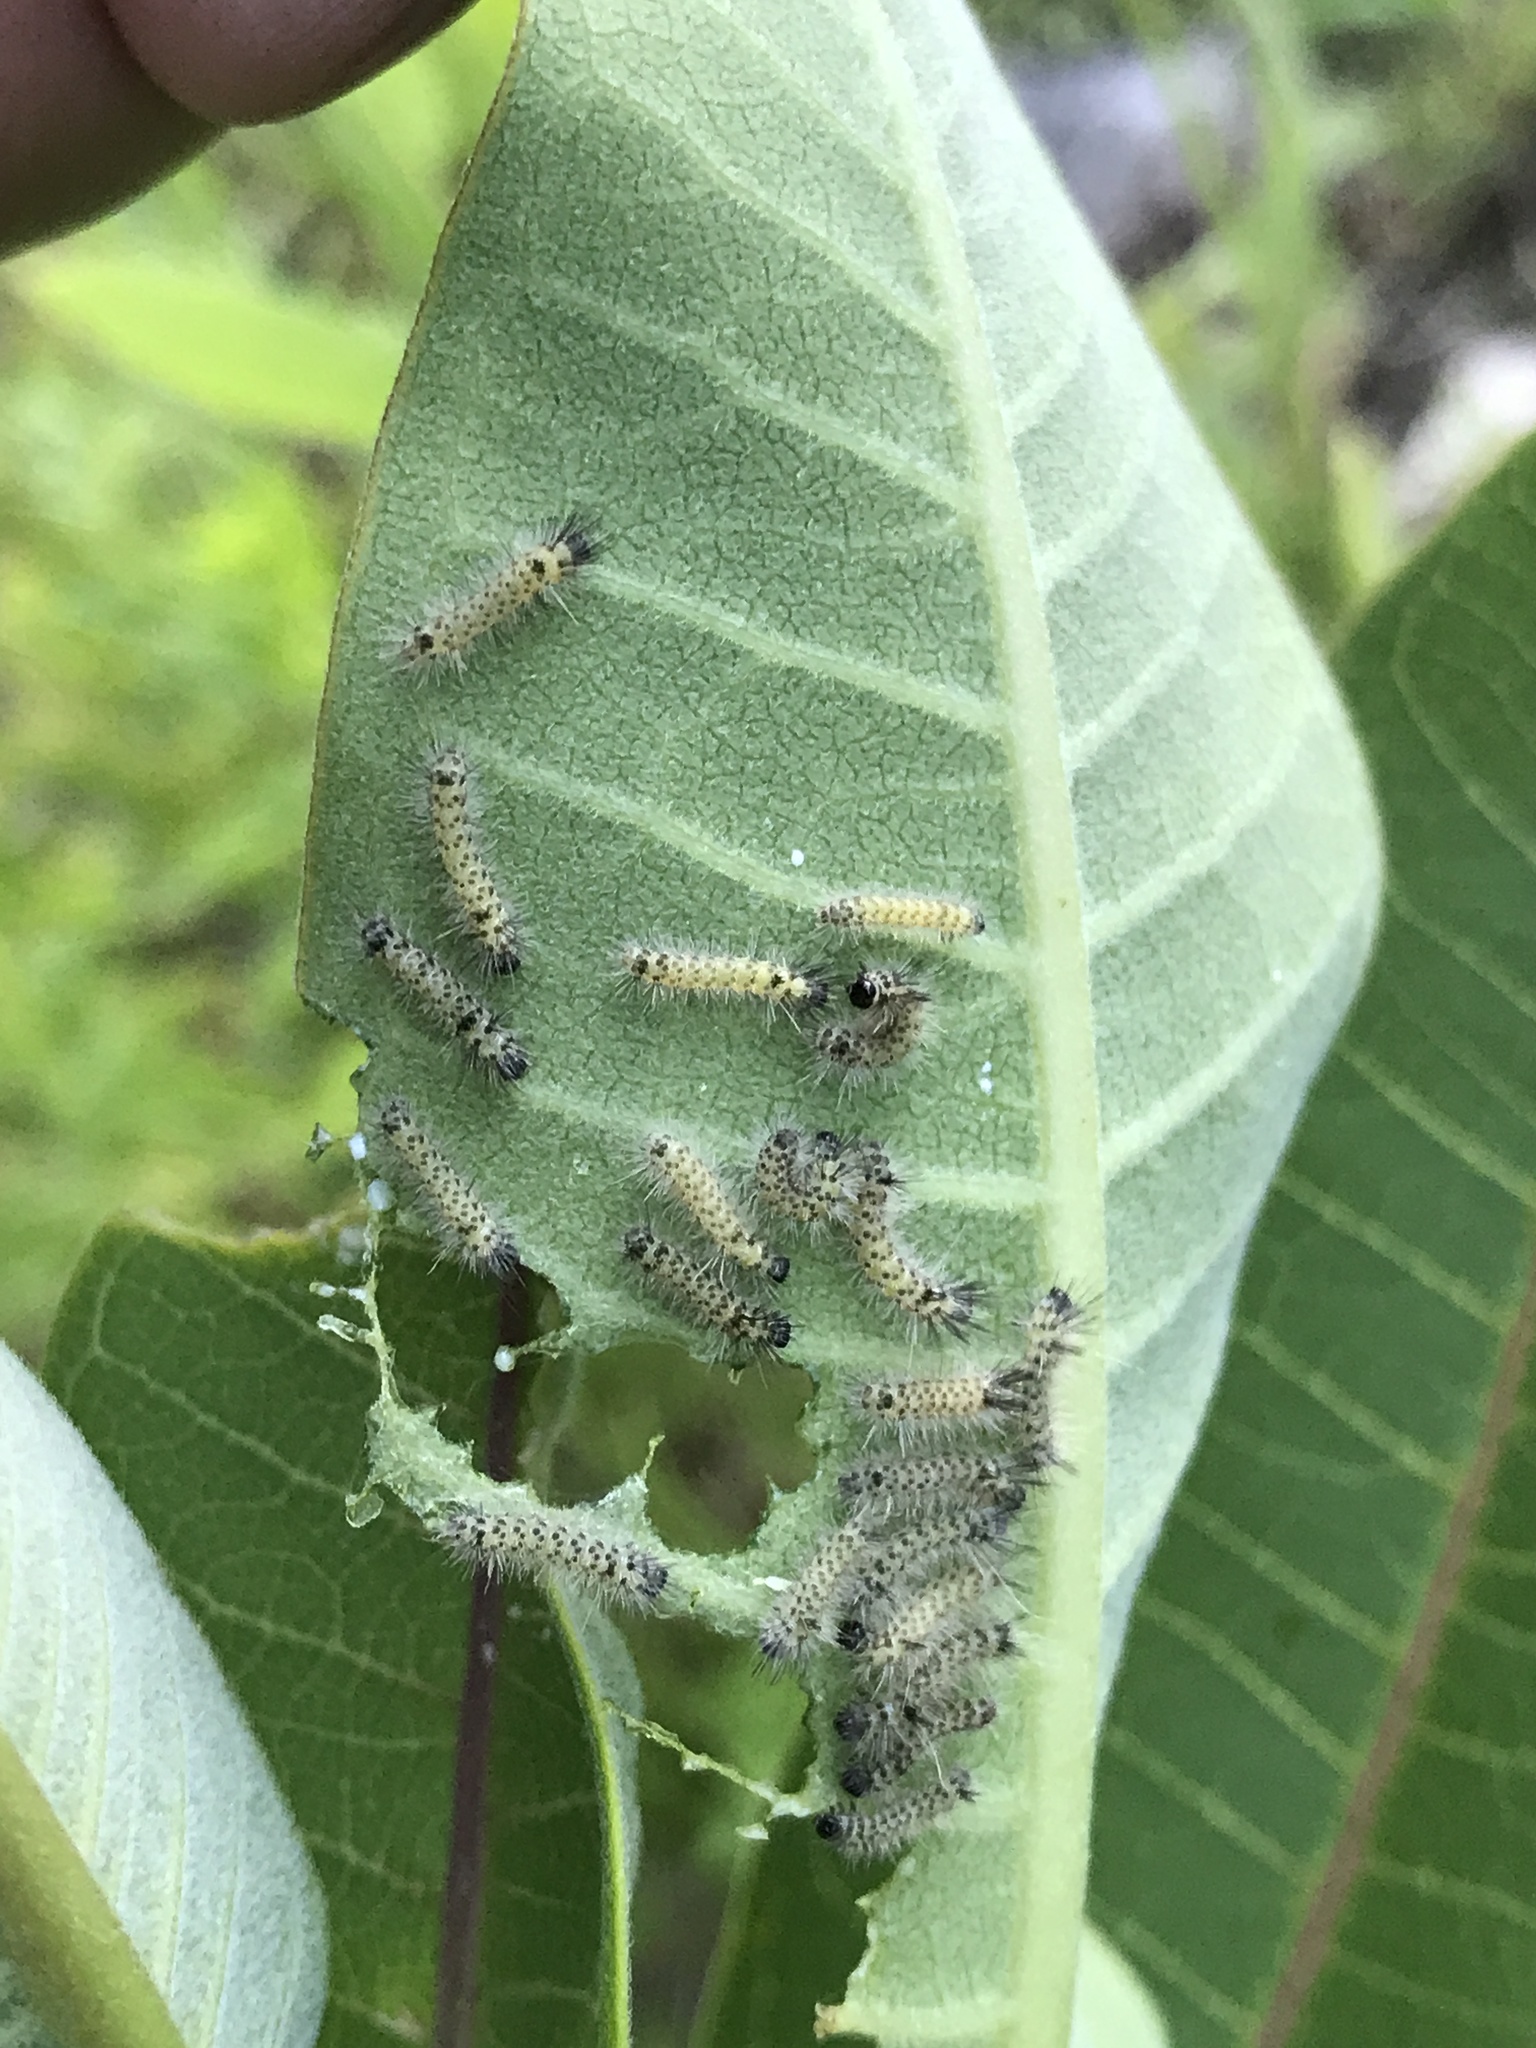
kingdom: Animalia
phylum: Arthropoda
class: Insecta
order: Lepidoptera
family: Erebidae
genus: Euchaetes
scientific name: Euchaetes egle
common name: Milkweed tussock moth
